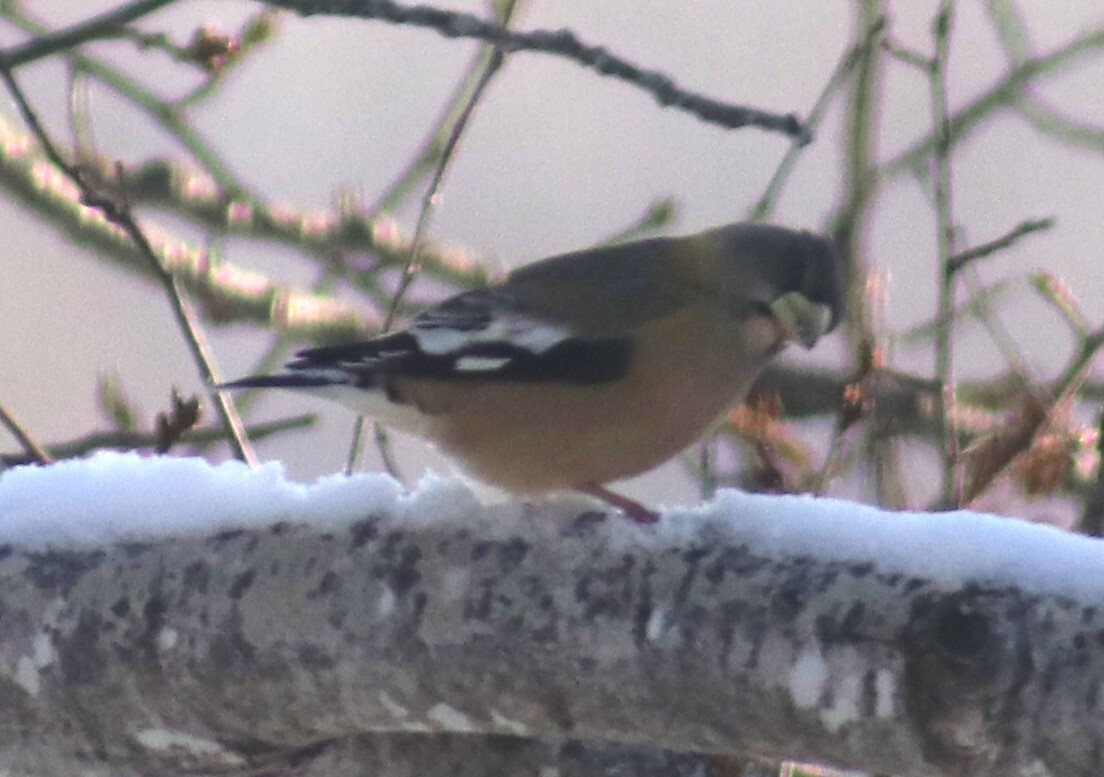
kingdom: Animalia
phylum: Chordata
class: Aves
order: Passeriformes
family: Fringillidae
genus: Hesperiphona
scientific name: Hesperiphona vespertina
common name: Evening grosbeak
